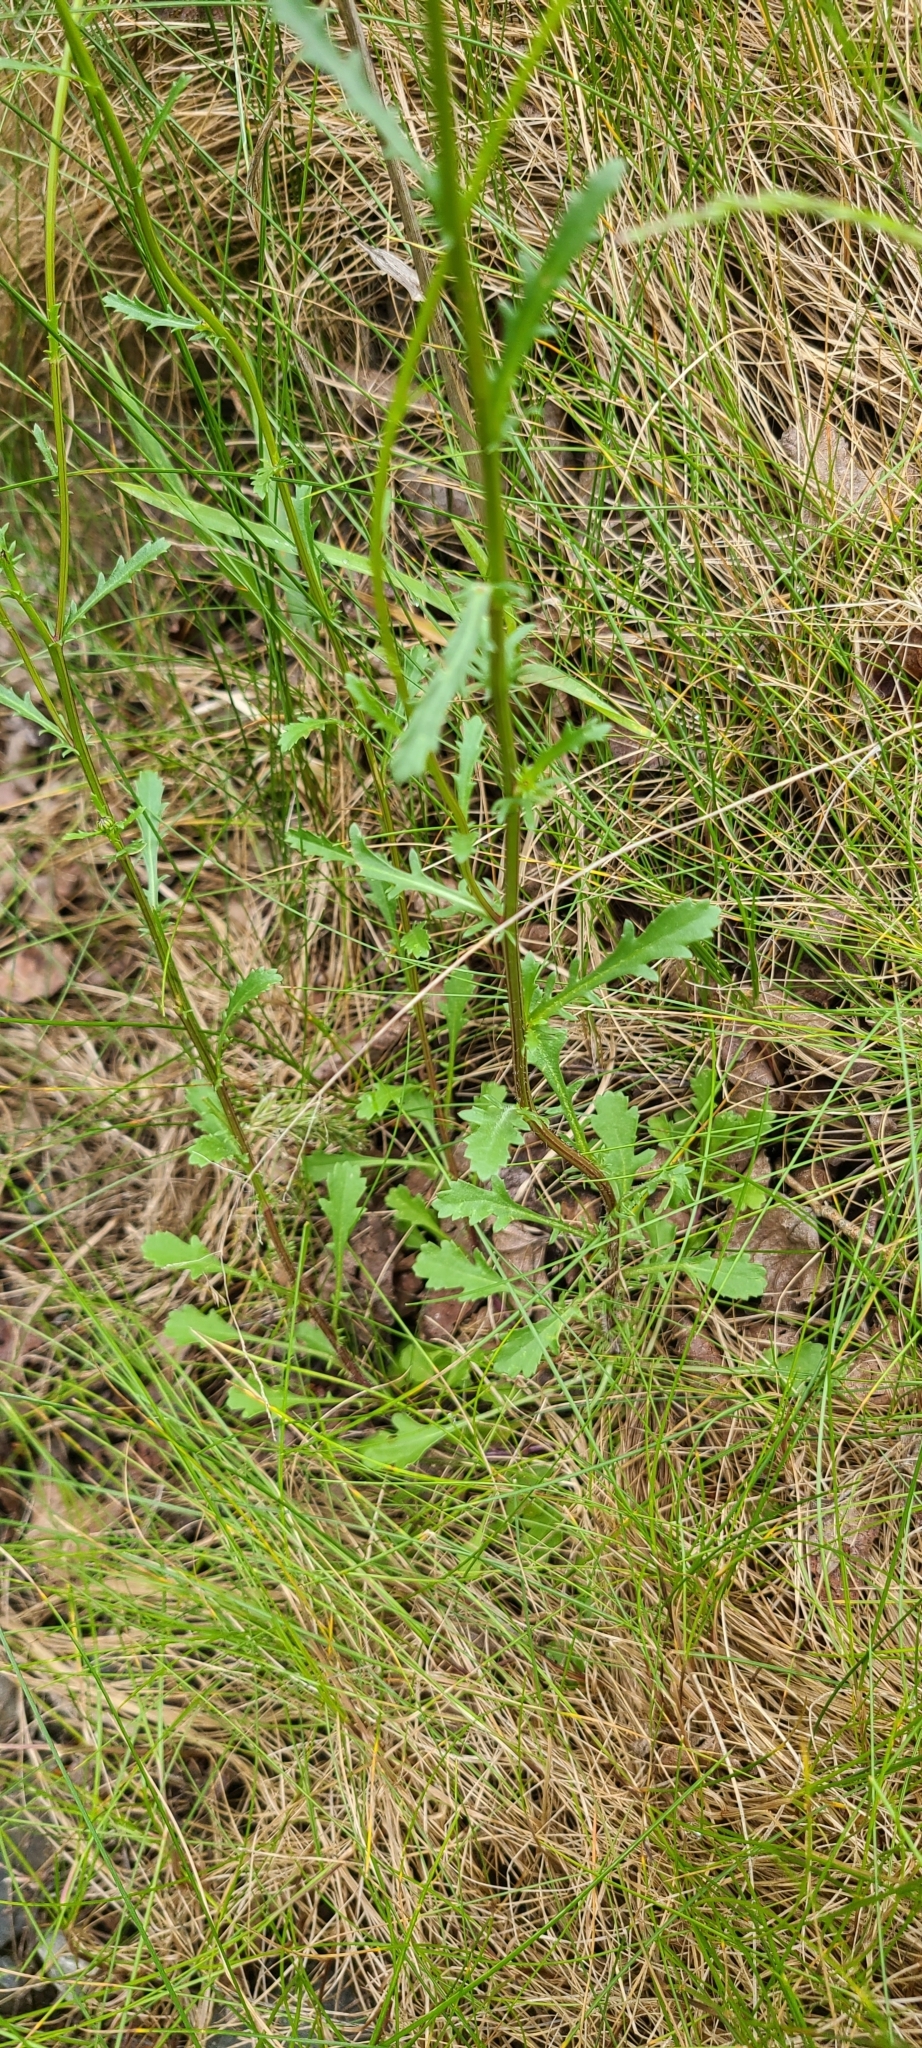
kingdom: Plantae
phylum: Tracheophyta
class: Magnoliopsida
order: Asterales
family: Asteraceae
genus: Leucanthemum
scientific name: Leucanthemum vulgare
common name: Oxeye daisy
